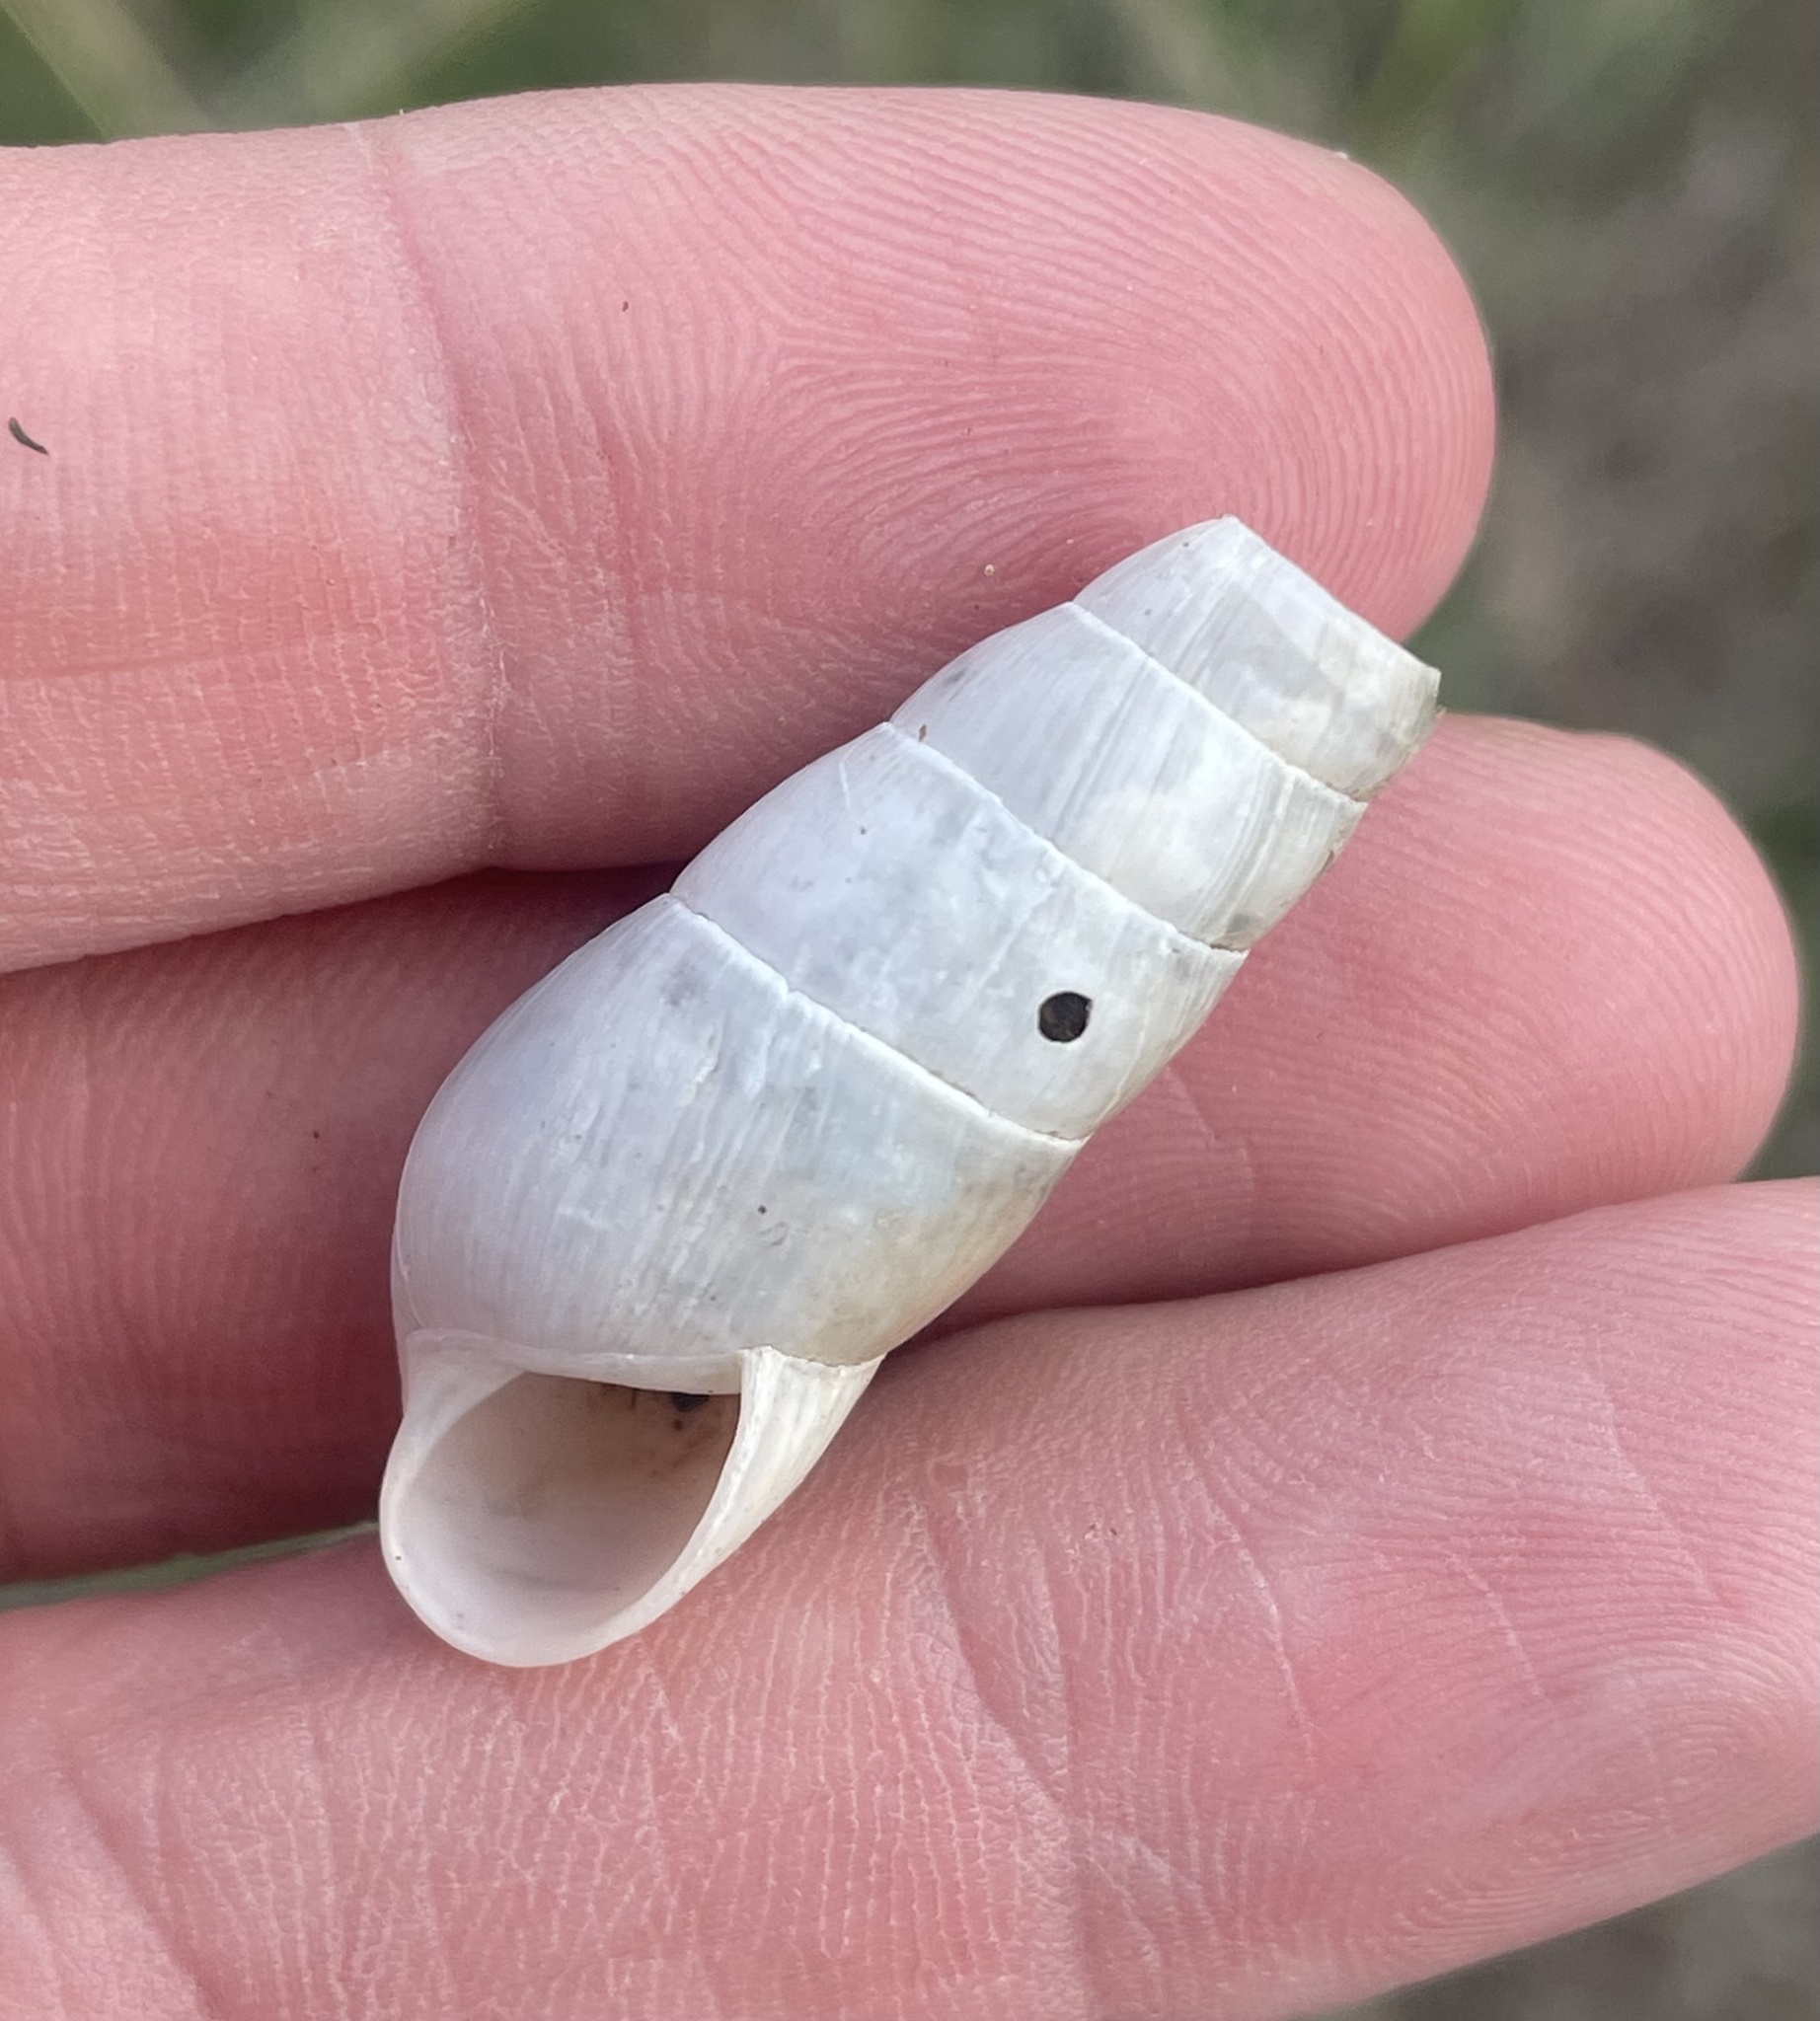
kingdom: Animalia
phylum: Mollusca
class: Gastropoda
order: Stylommatophora
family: Achatinidae
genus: Rumina
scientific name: Rumina decollata
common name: Decollate snail
